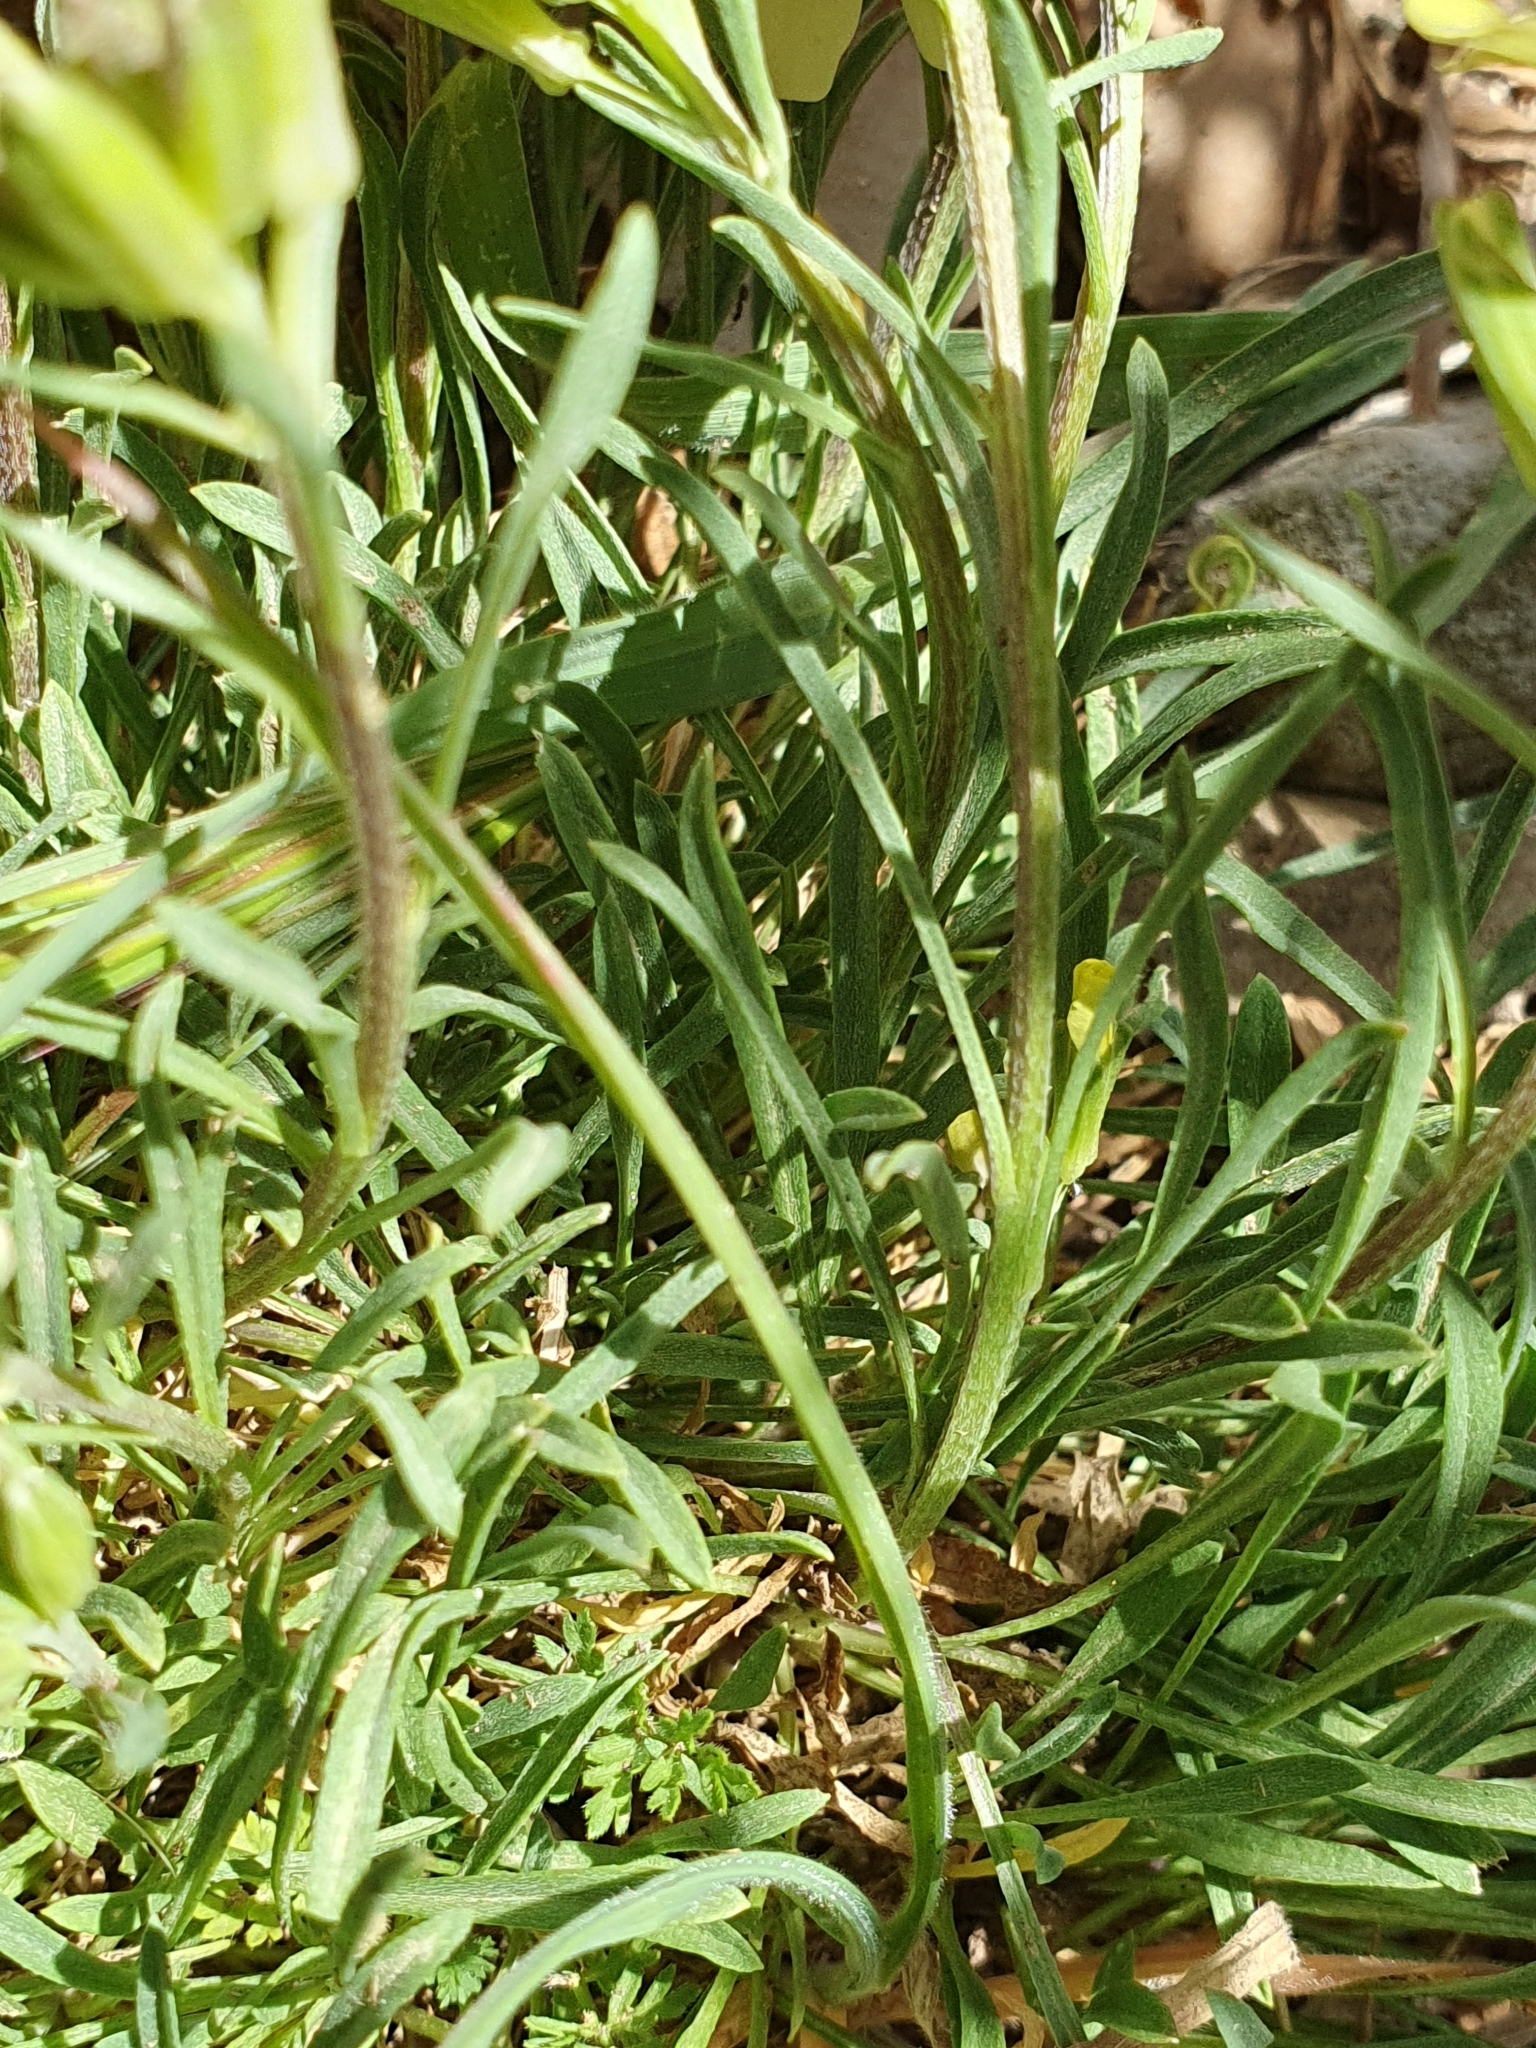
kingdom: Plantae
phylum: Tracheophyta
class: Magnoliopsida
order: Brassicales
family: Brassicaceae
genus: Erysimum
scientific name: Erysimum grandiflorum
